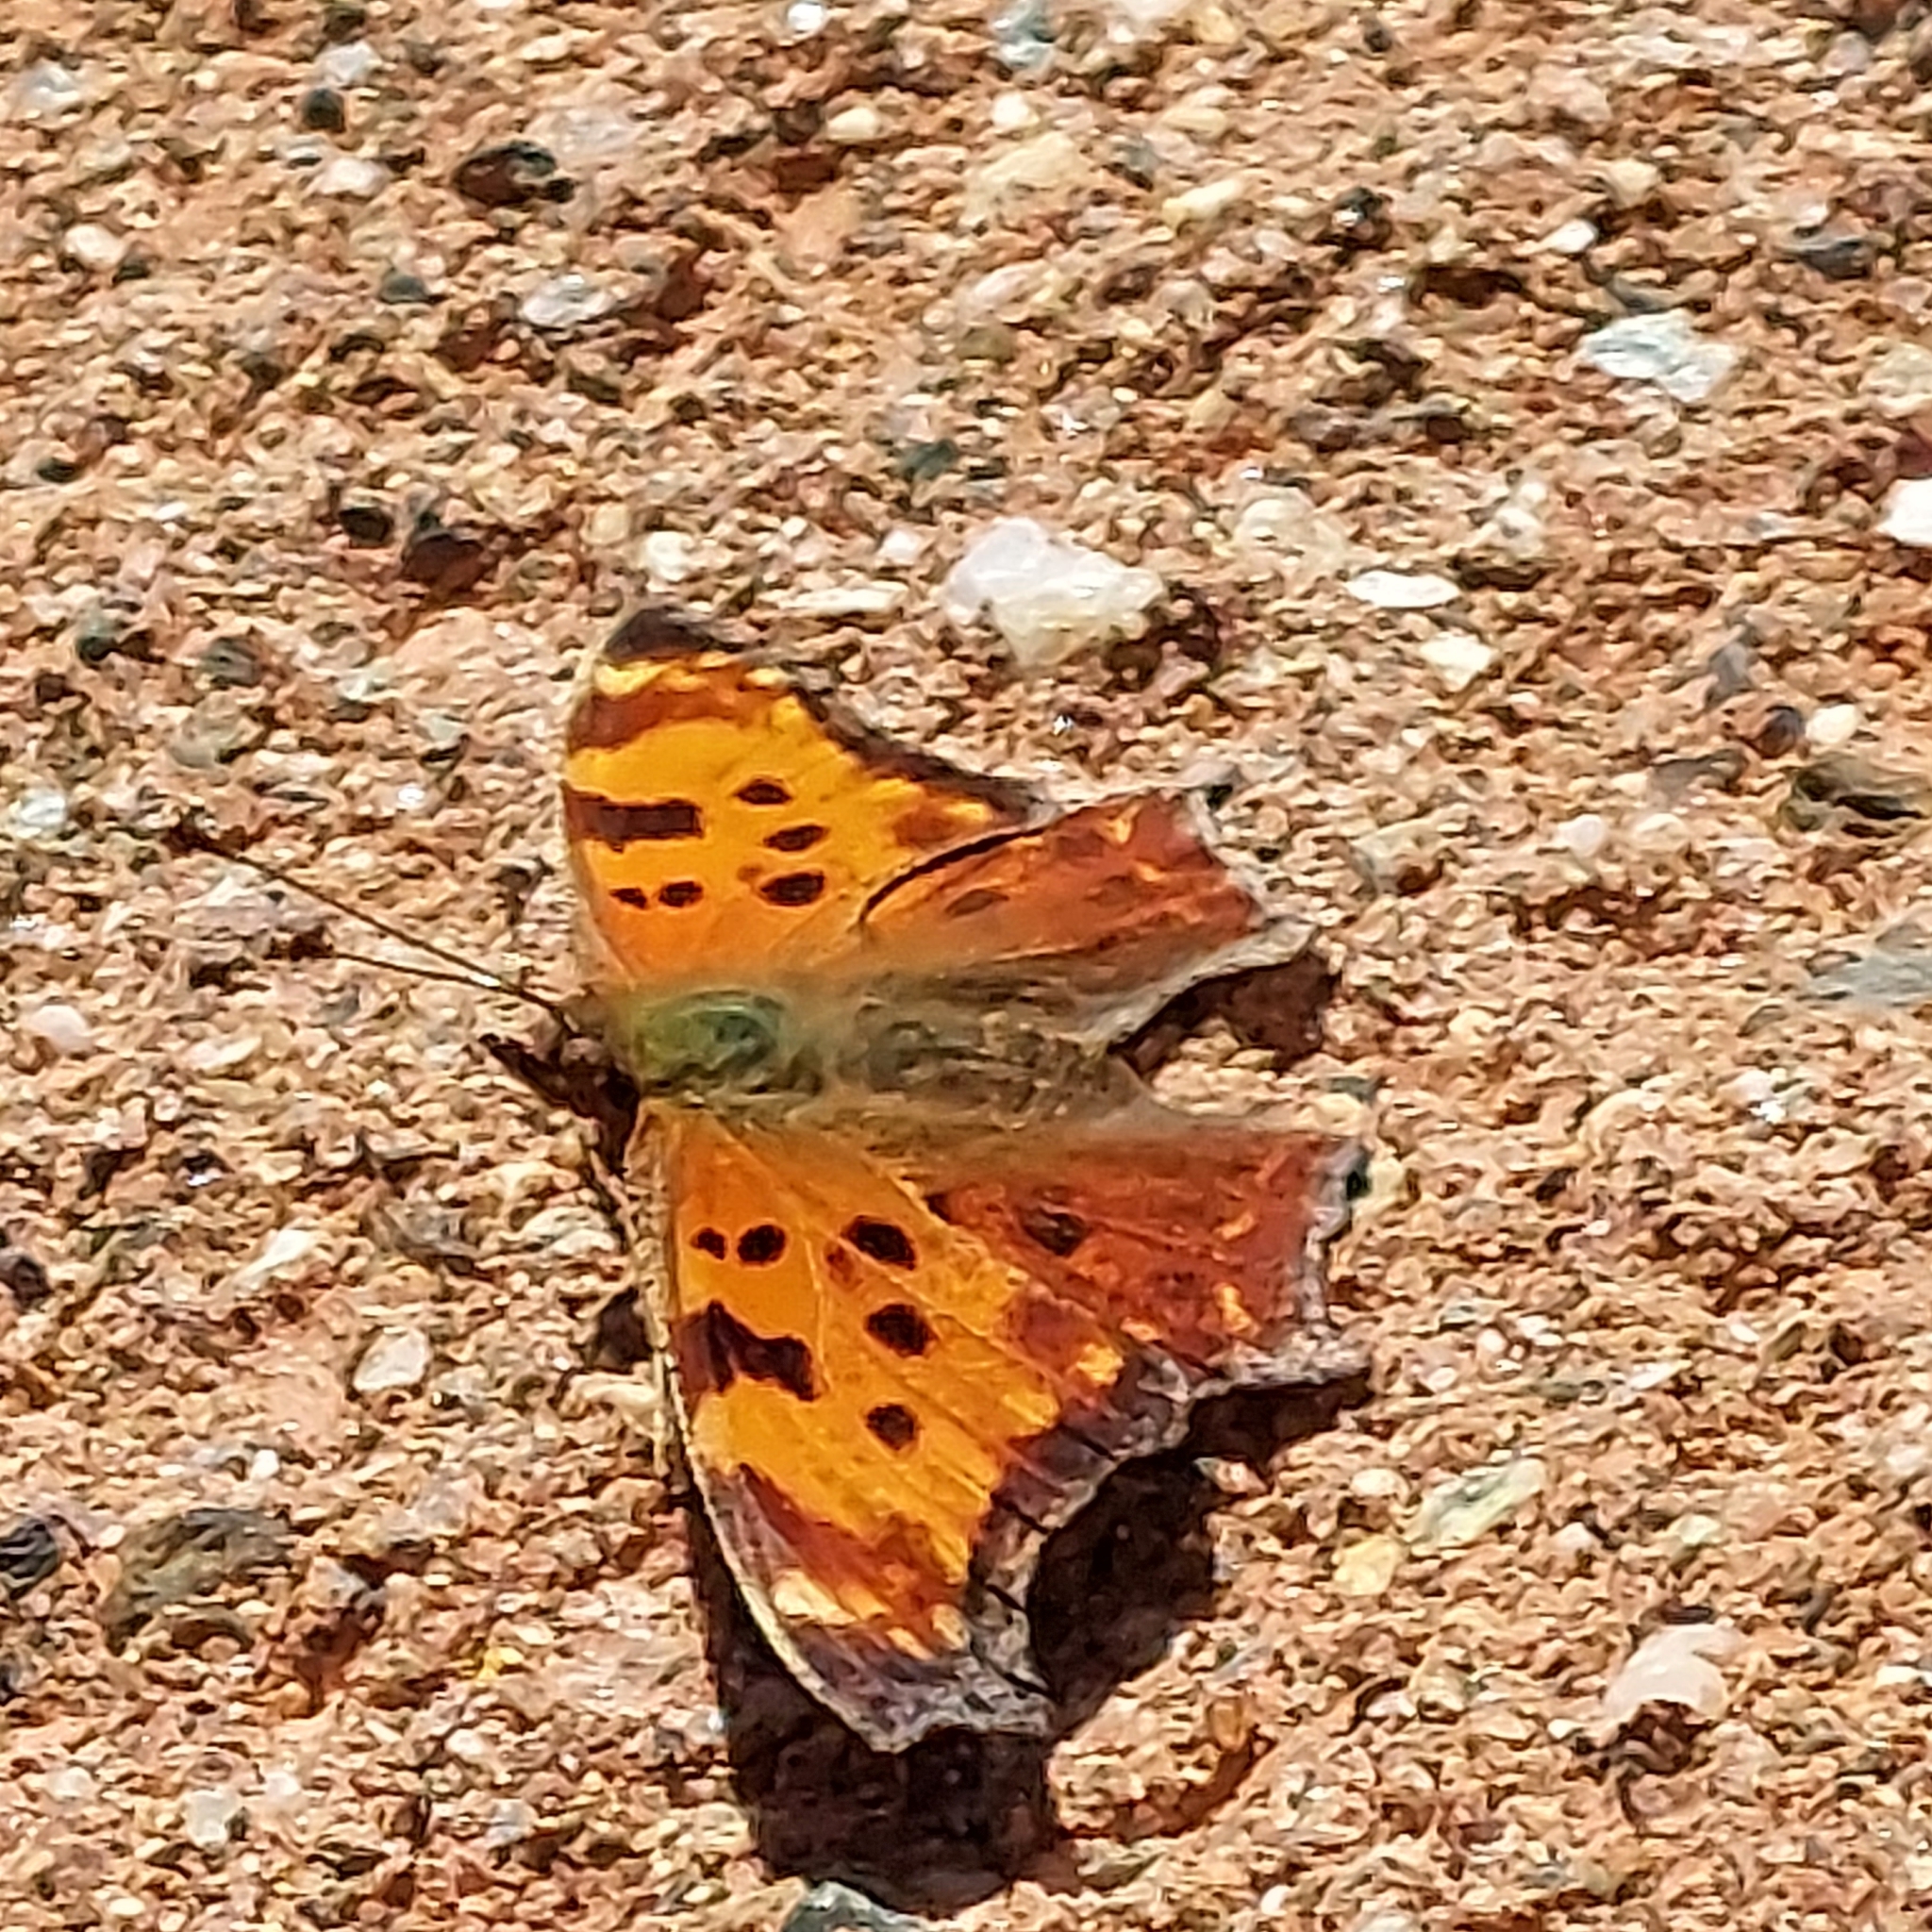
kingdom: Animalia
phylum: Arthropoda
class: Insecta
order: Lepidoptera
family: Nymphalidae
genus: Polygonia
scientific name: Polygonia comma
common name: Eastern comma
